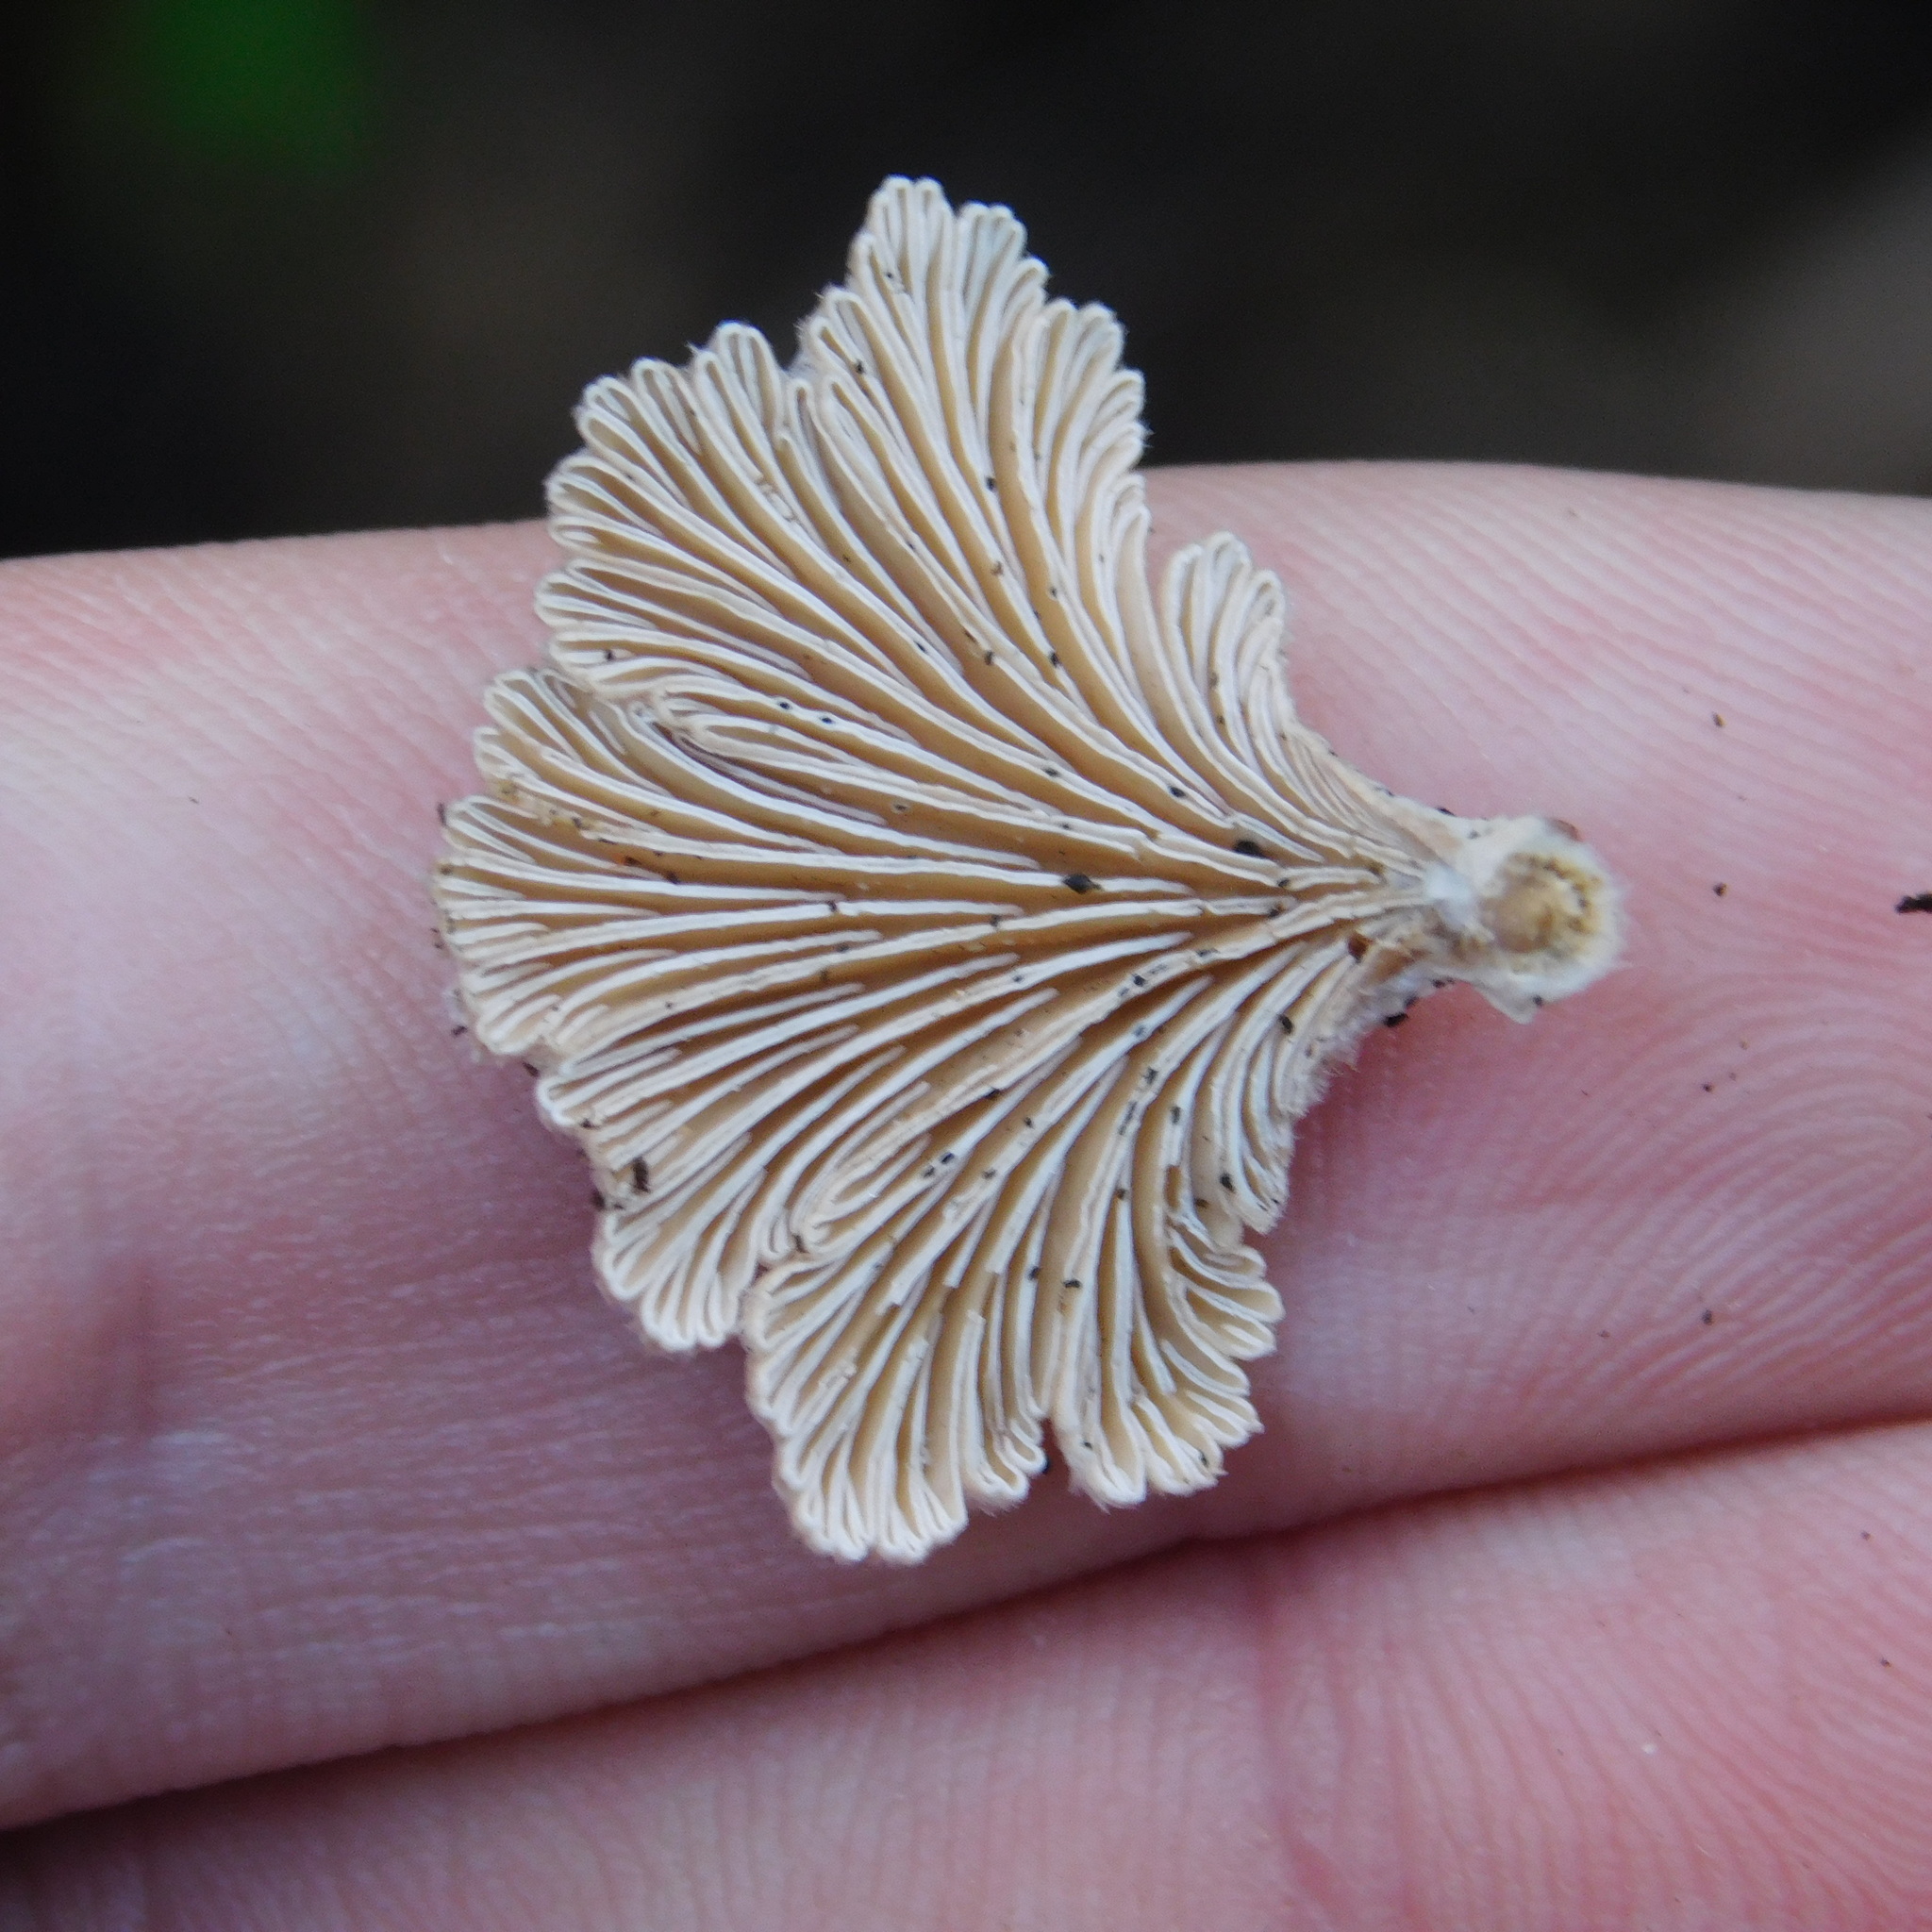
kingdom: Fungi
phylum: Basidiomycota
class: Agaricomycetes
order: Agaricales
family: Schizophyllaceae
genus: Schizophyllum
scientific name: Schizophyllum commune
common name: Common porecrust
